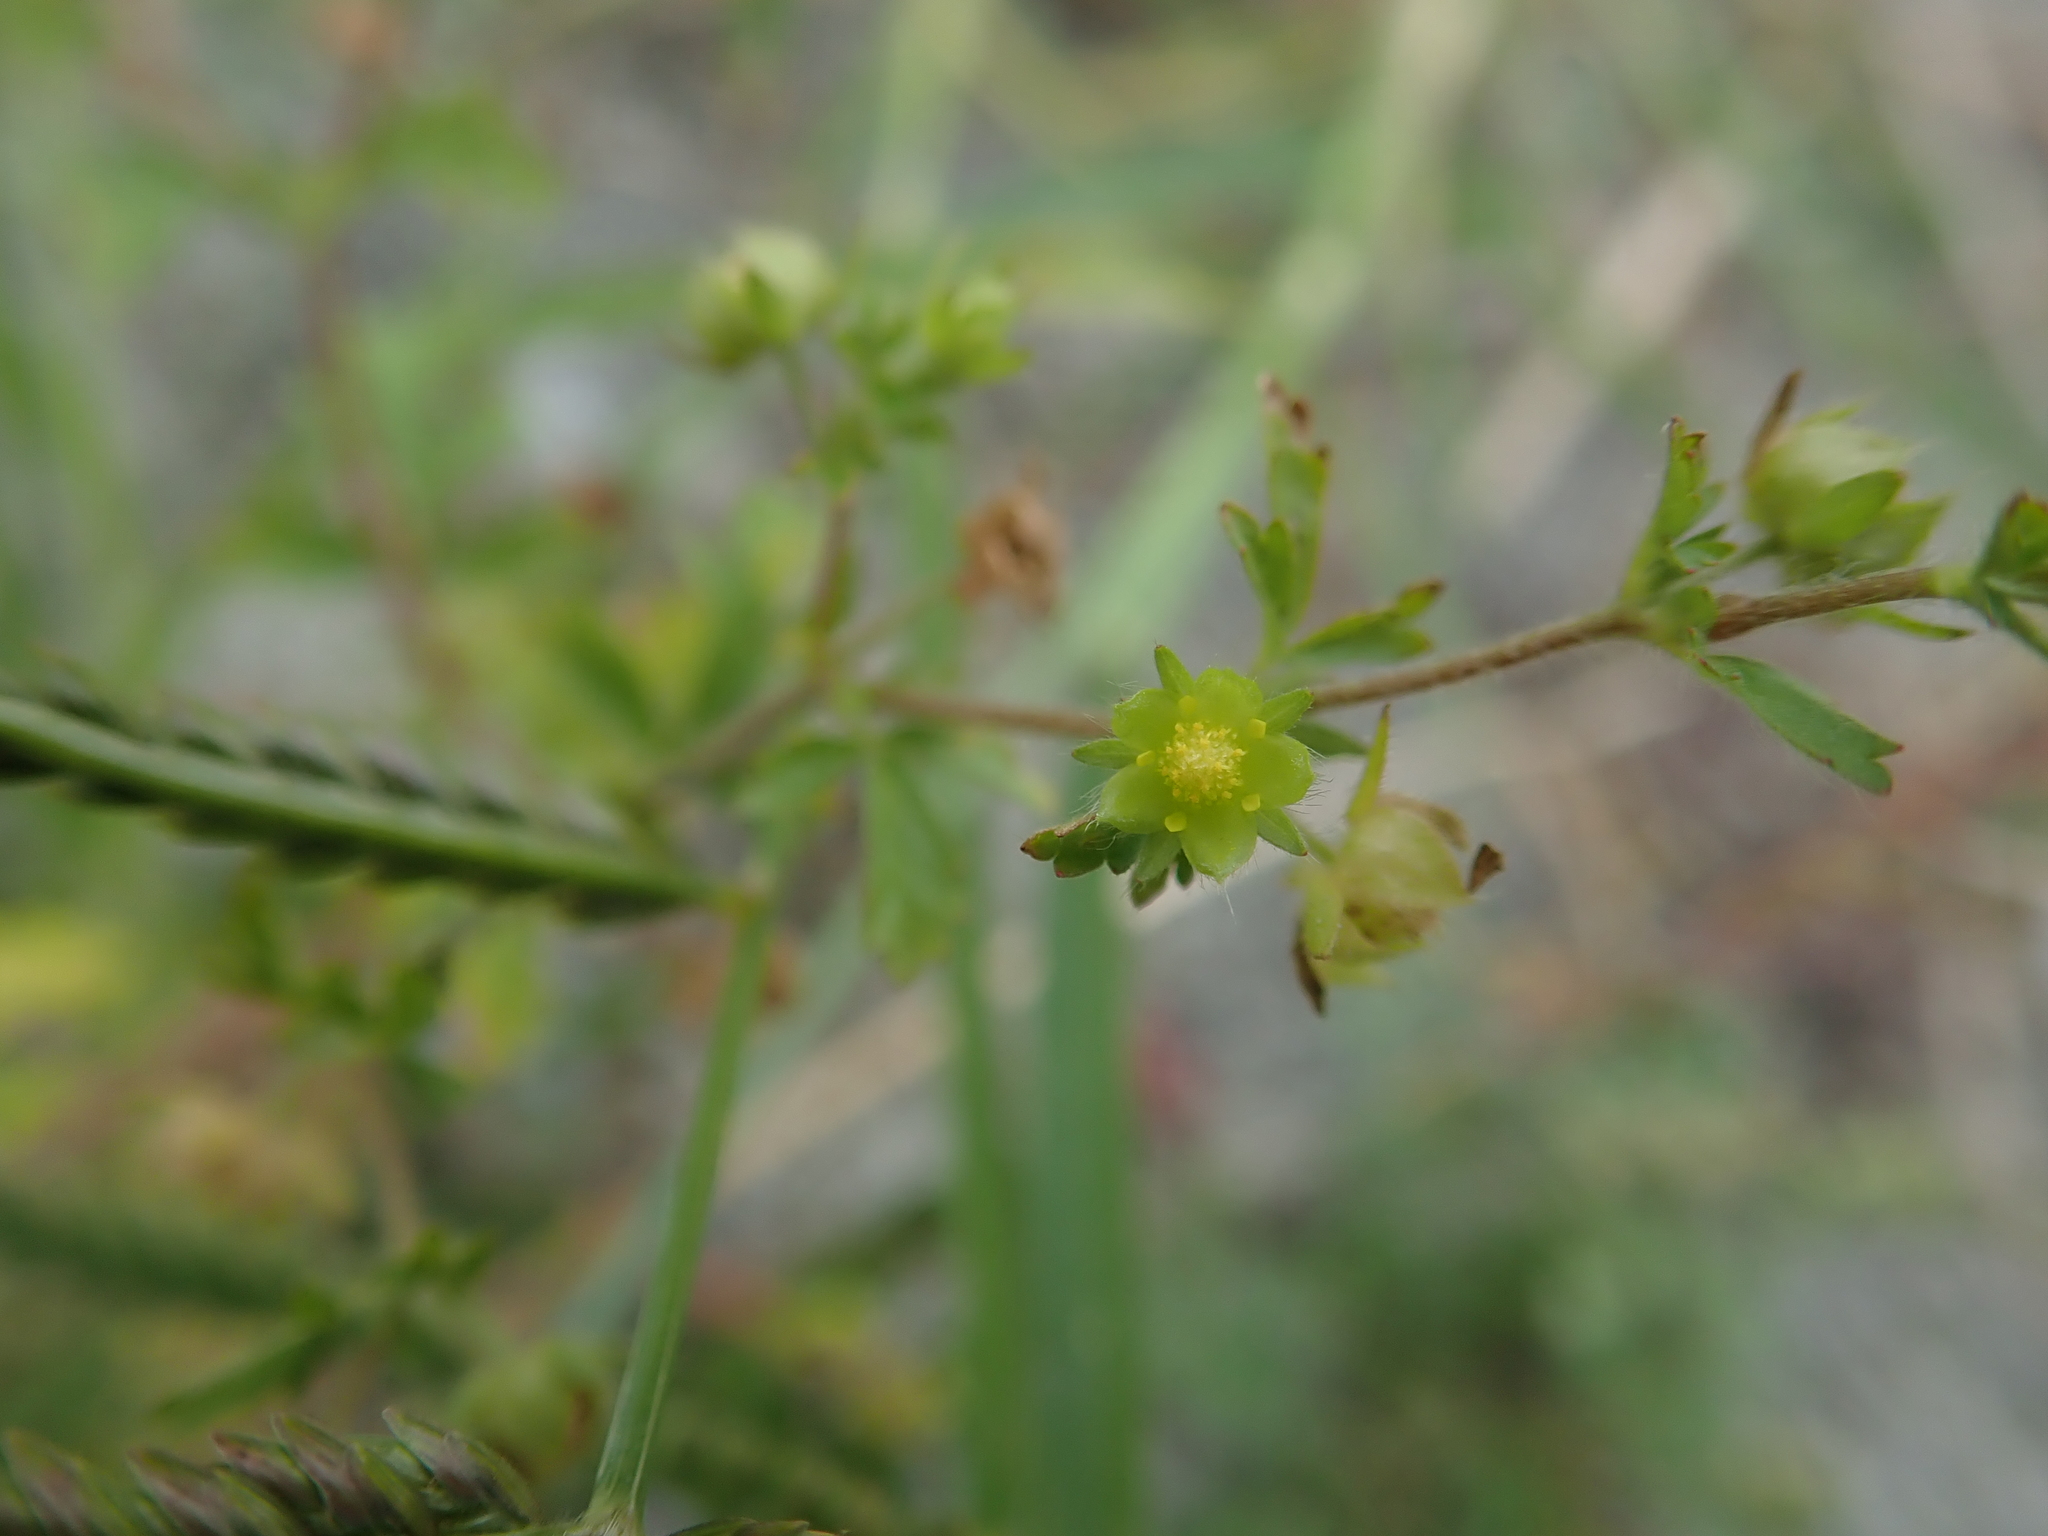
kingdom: Plantae
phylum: Tracheophyta
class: Magnoliopsida
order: Rosales
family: Rosaceae
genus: Potentilla
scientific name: Potentilla heynei
